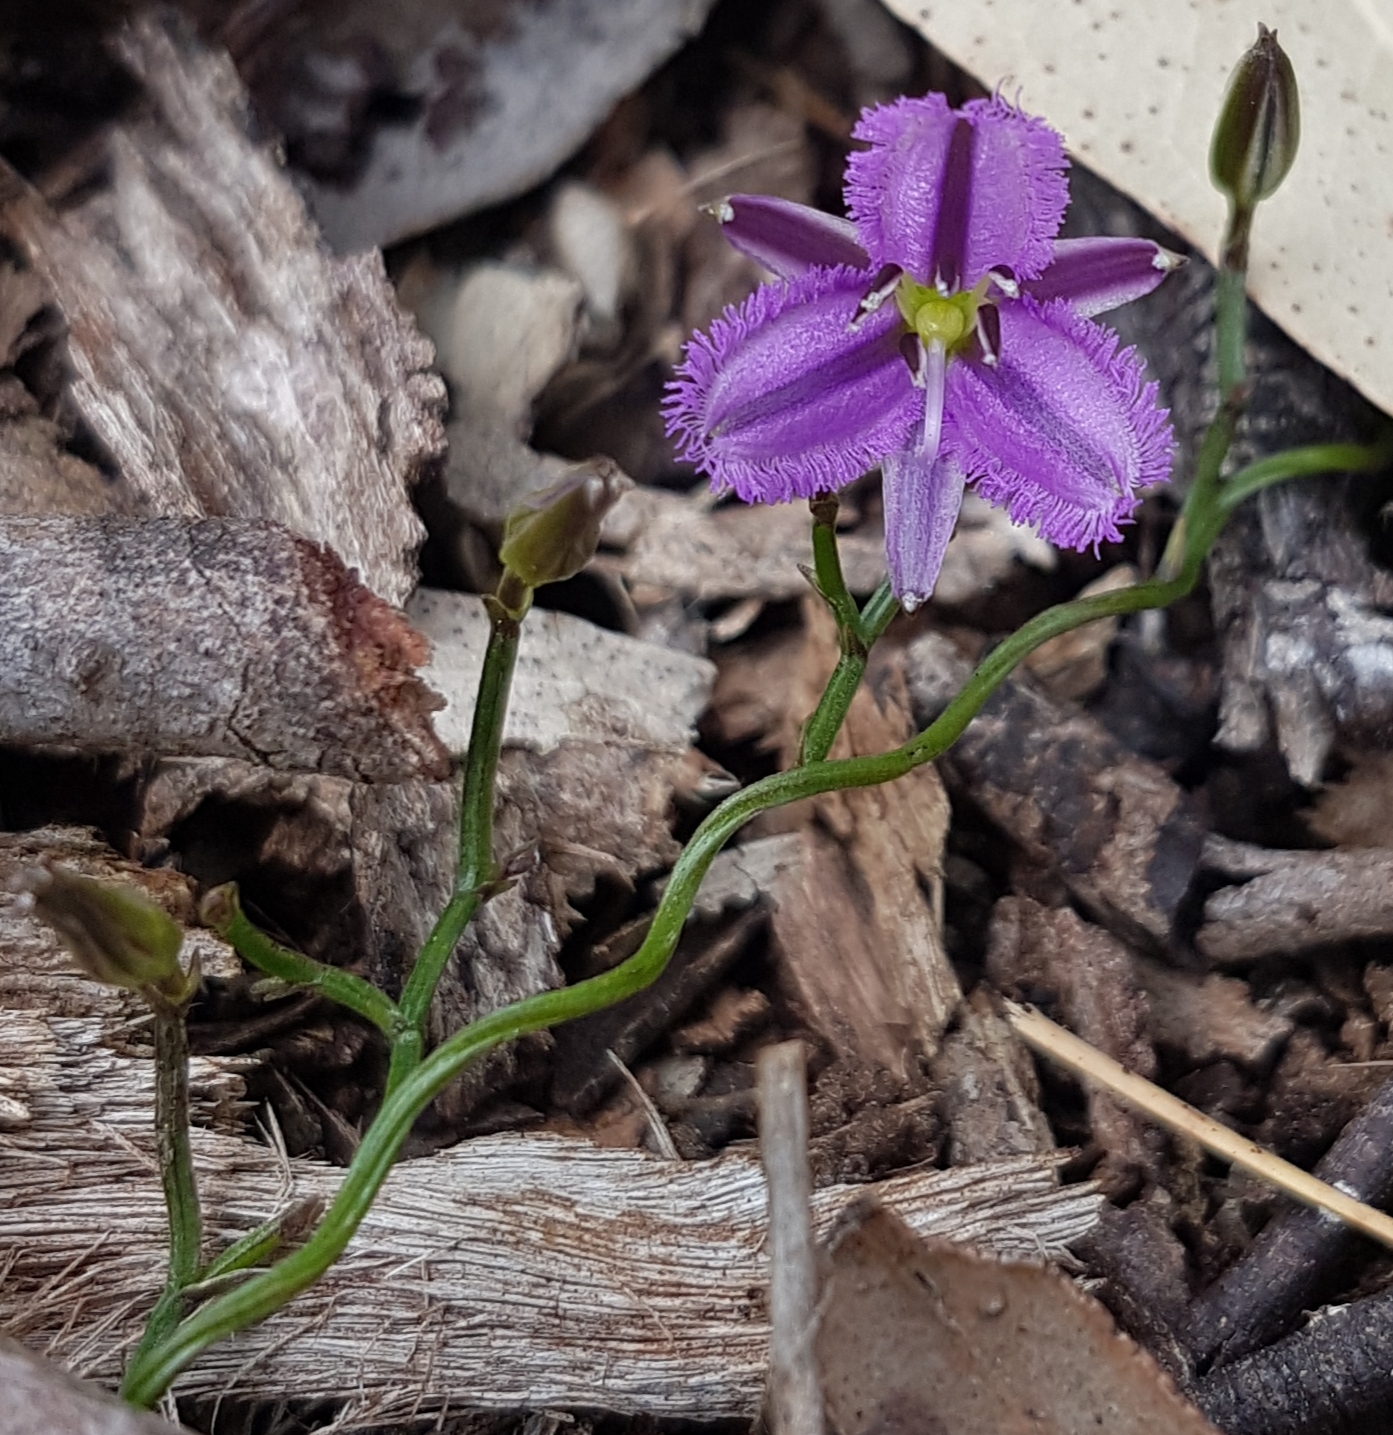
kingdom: Plantae
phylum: Tracheophyta
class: Liliopsida
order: Asparagales
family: Asparagaceae
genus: Thysanotus
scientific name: Thysanotus patersonii
